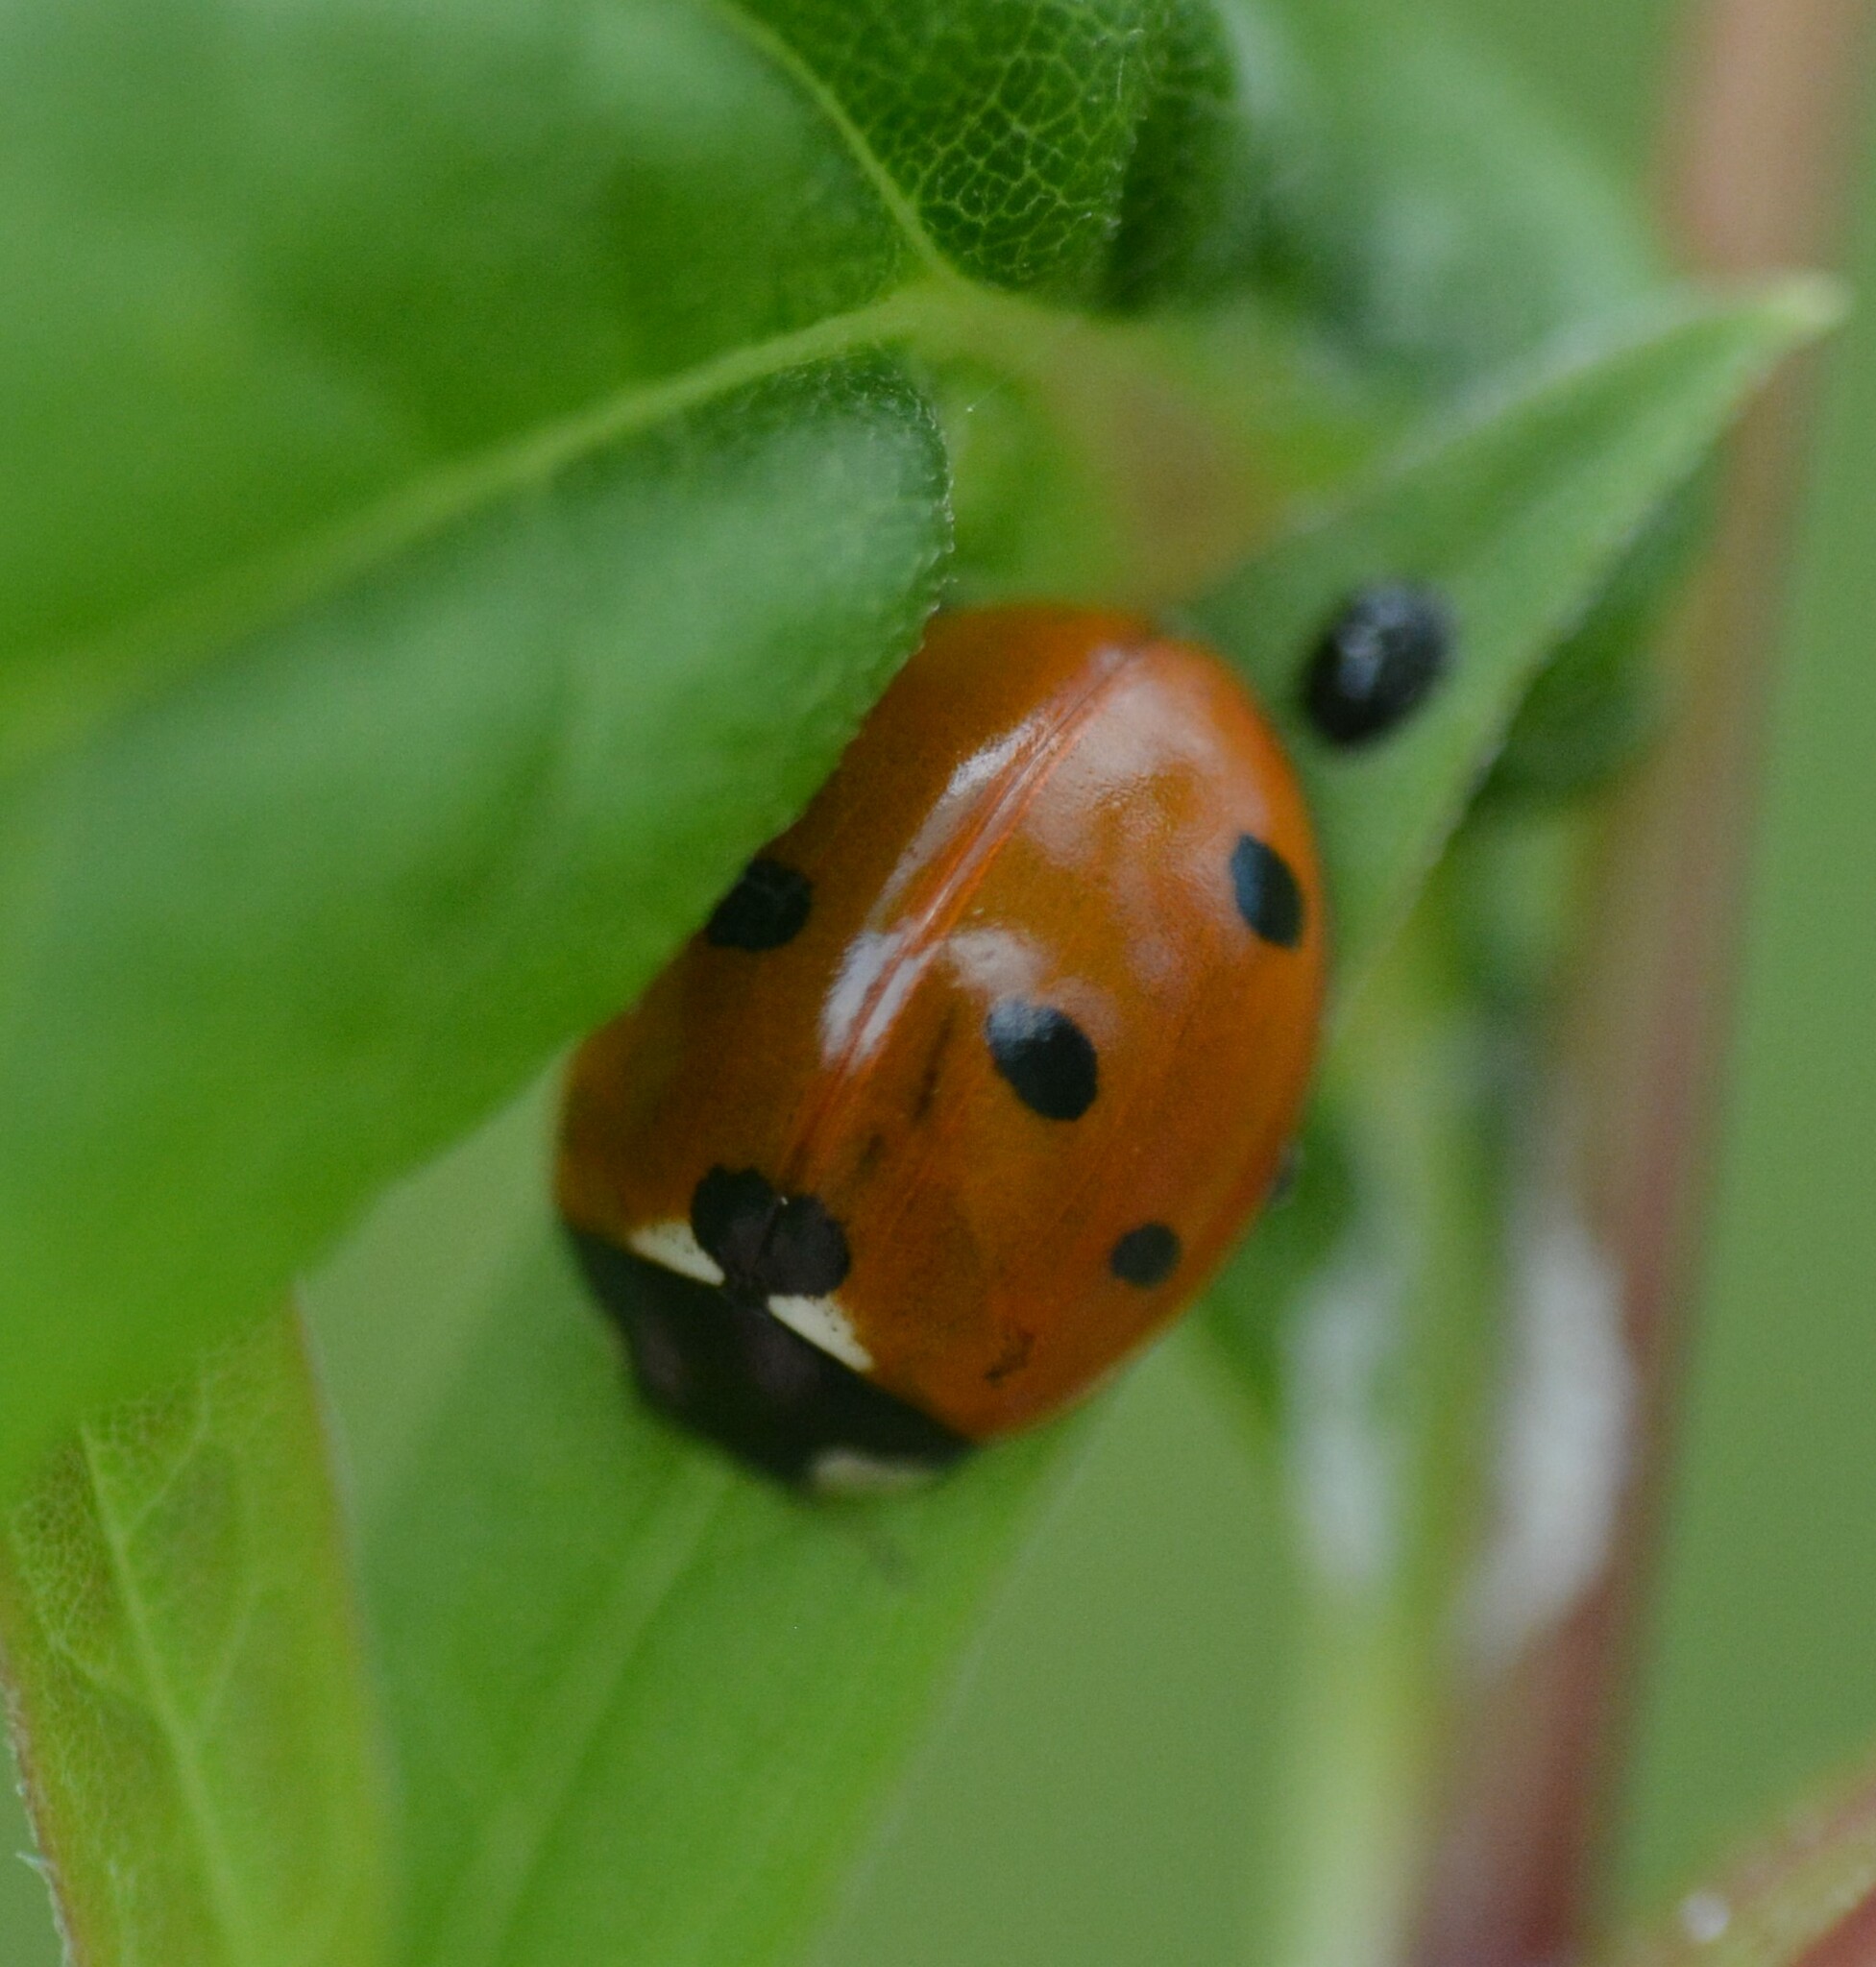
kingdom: Animalia
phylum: Arthropoda
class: Insecta
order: Coleoptera
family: Coccinellidae
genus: Coccinella
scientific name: Coccinella septempunctata
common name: Sevenspotted lady beetle
